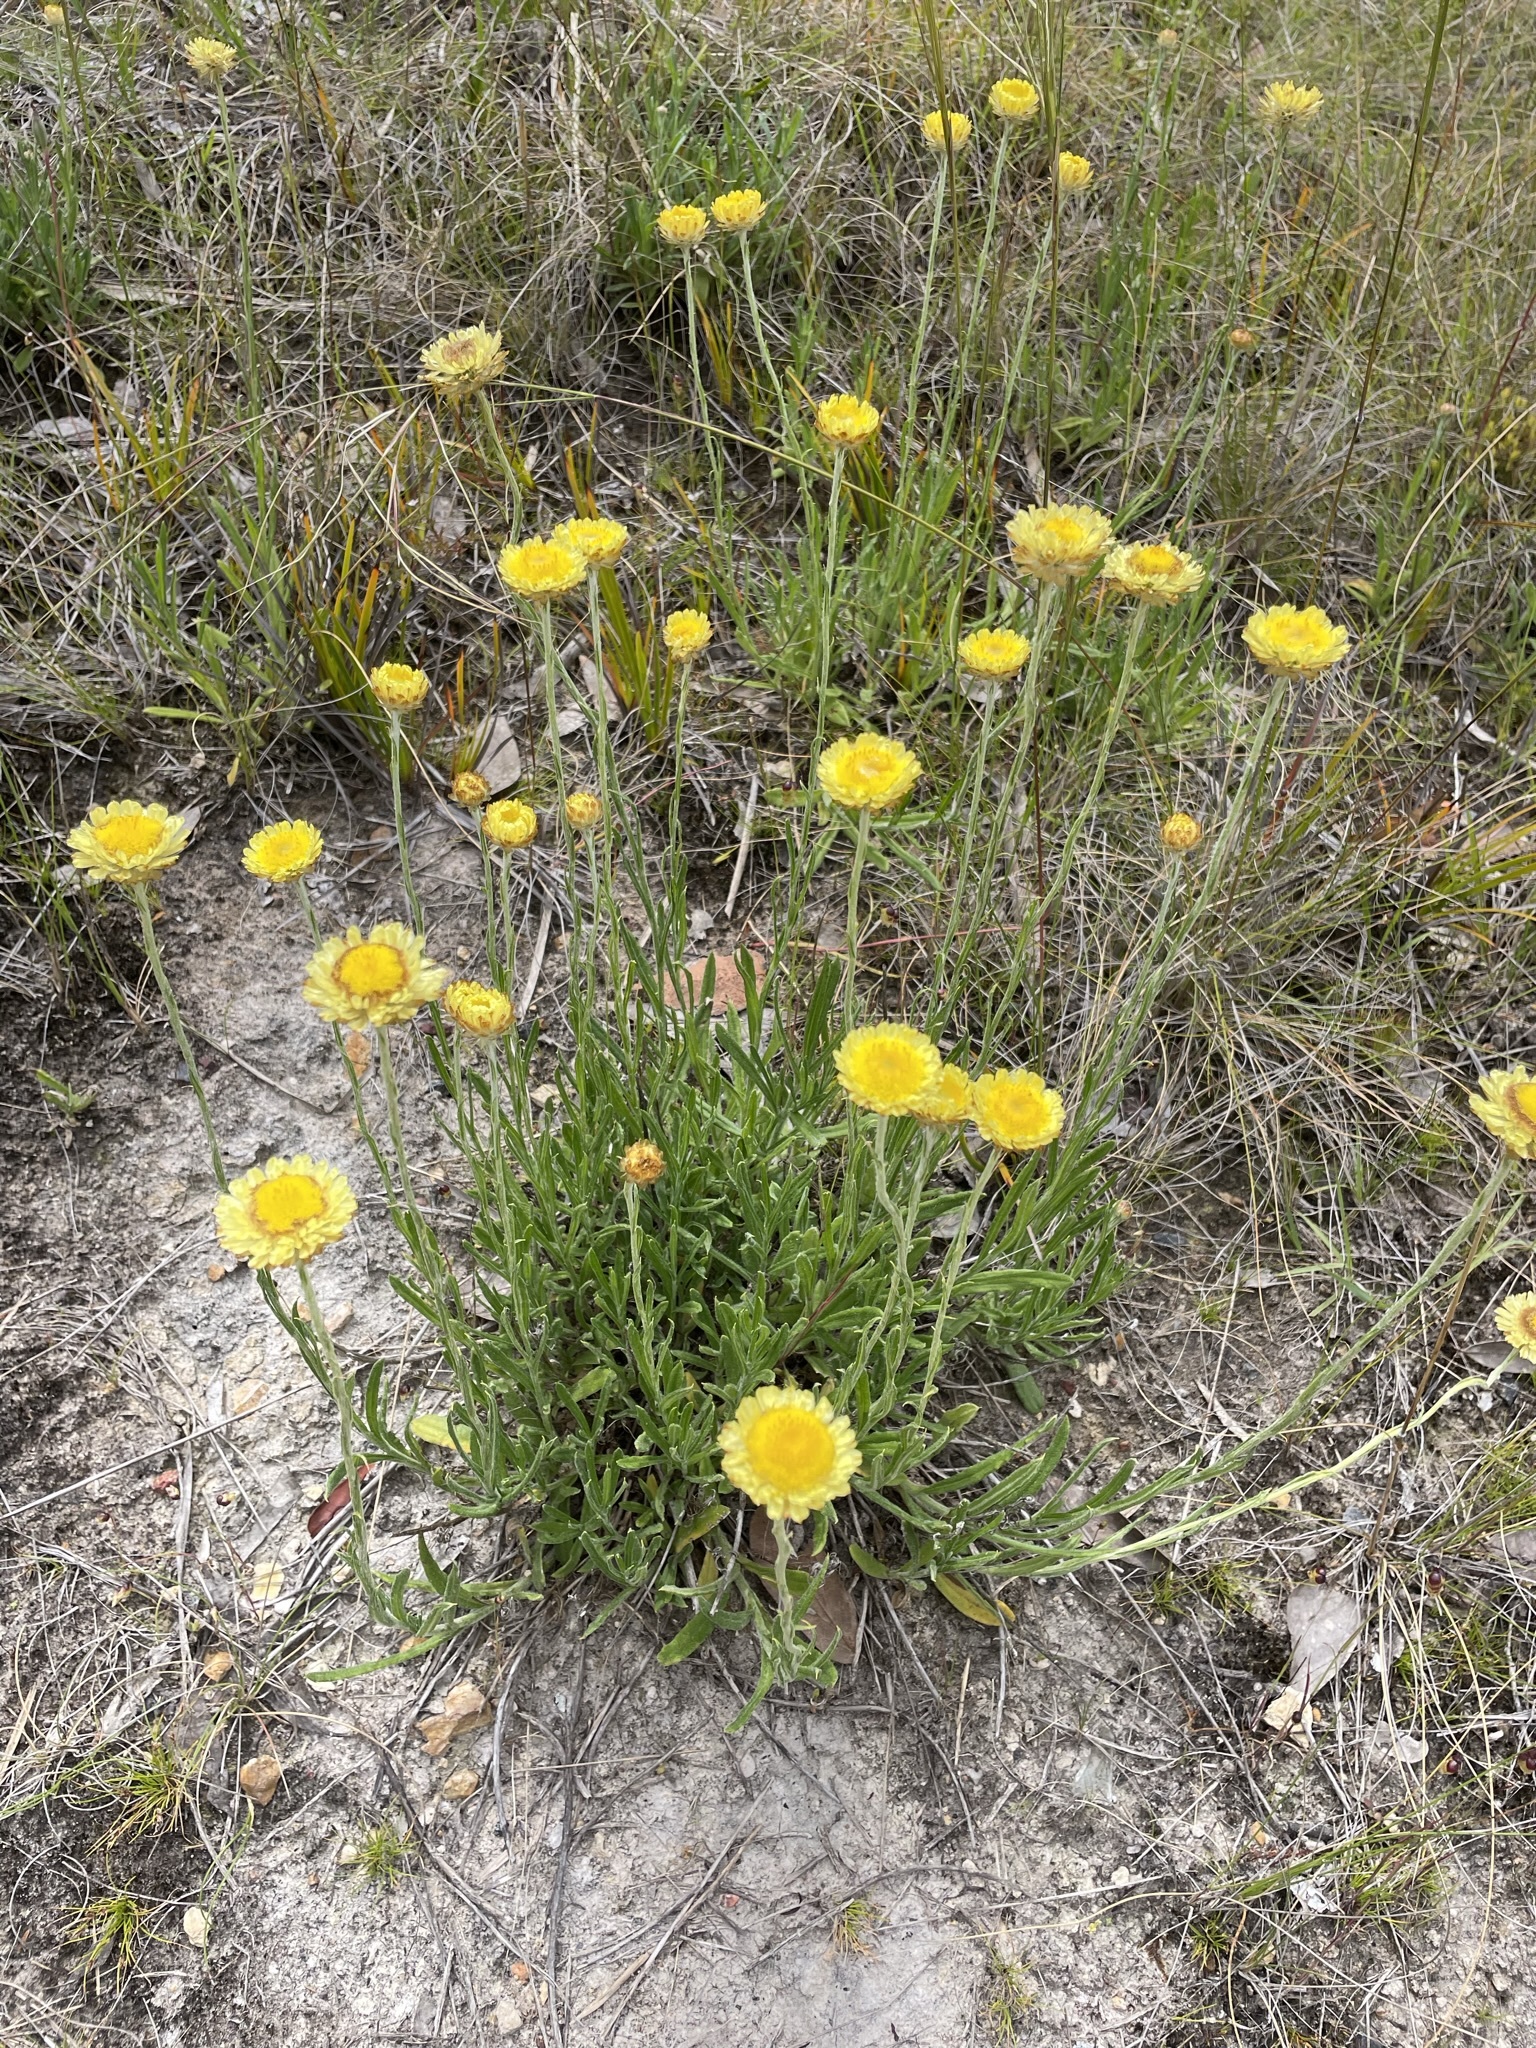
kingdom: Plantae
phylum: Tracheophyta
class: Magnoliopsida
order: Asterales
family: Asteraceae
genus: Coronidium
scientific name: Coronidium scorpioides
